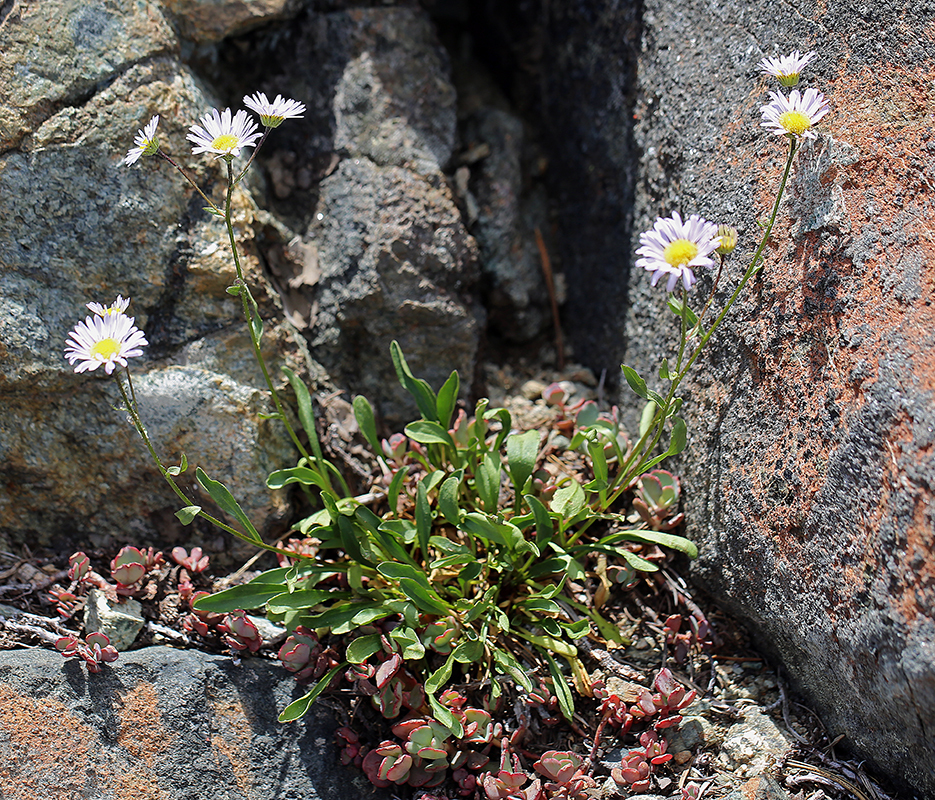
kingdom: Plantae
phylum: Tracheophyta
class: Magnoliopsida
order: Asterales
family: Asteraceae
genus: Erigeron
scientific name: Erigeron cervinus
